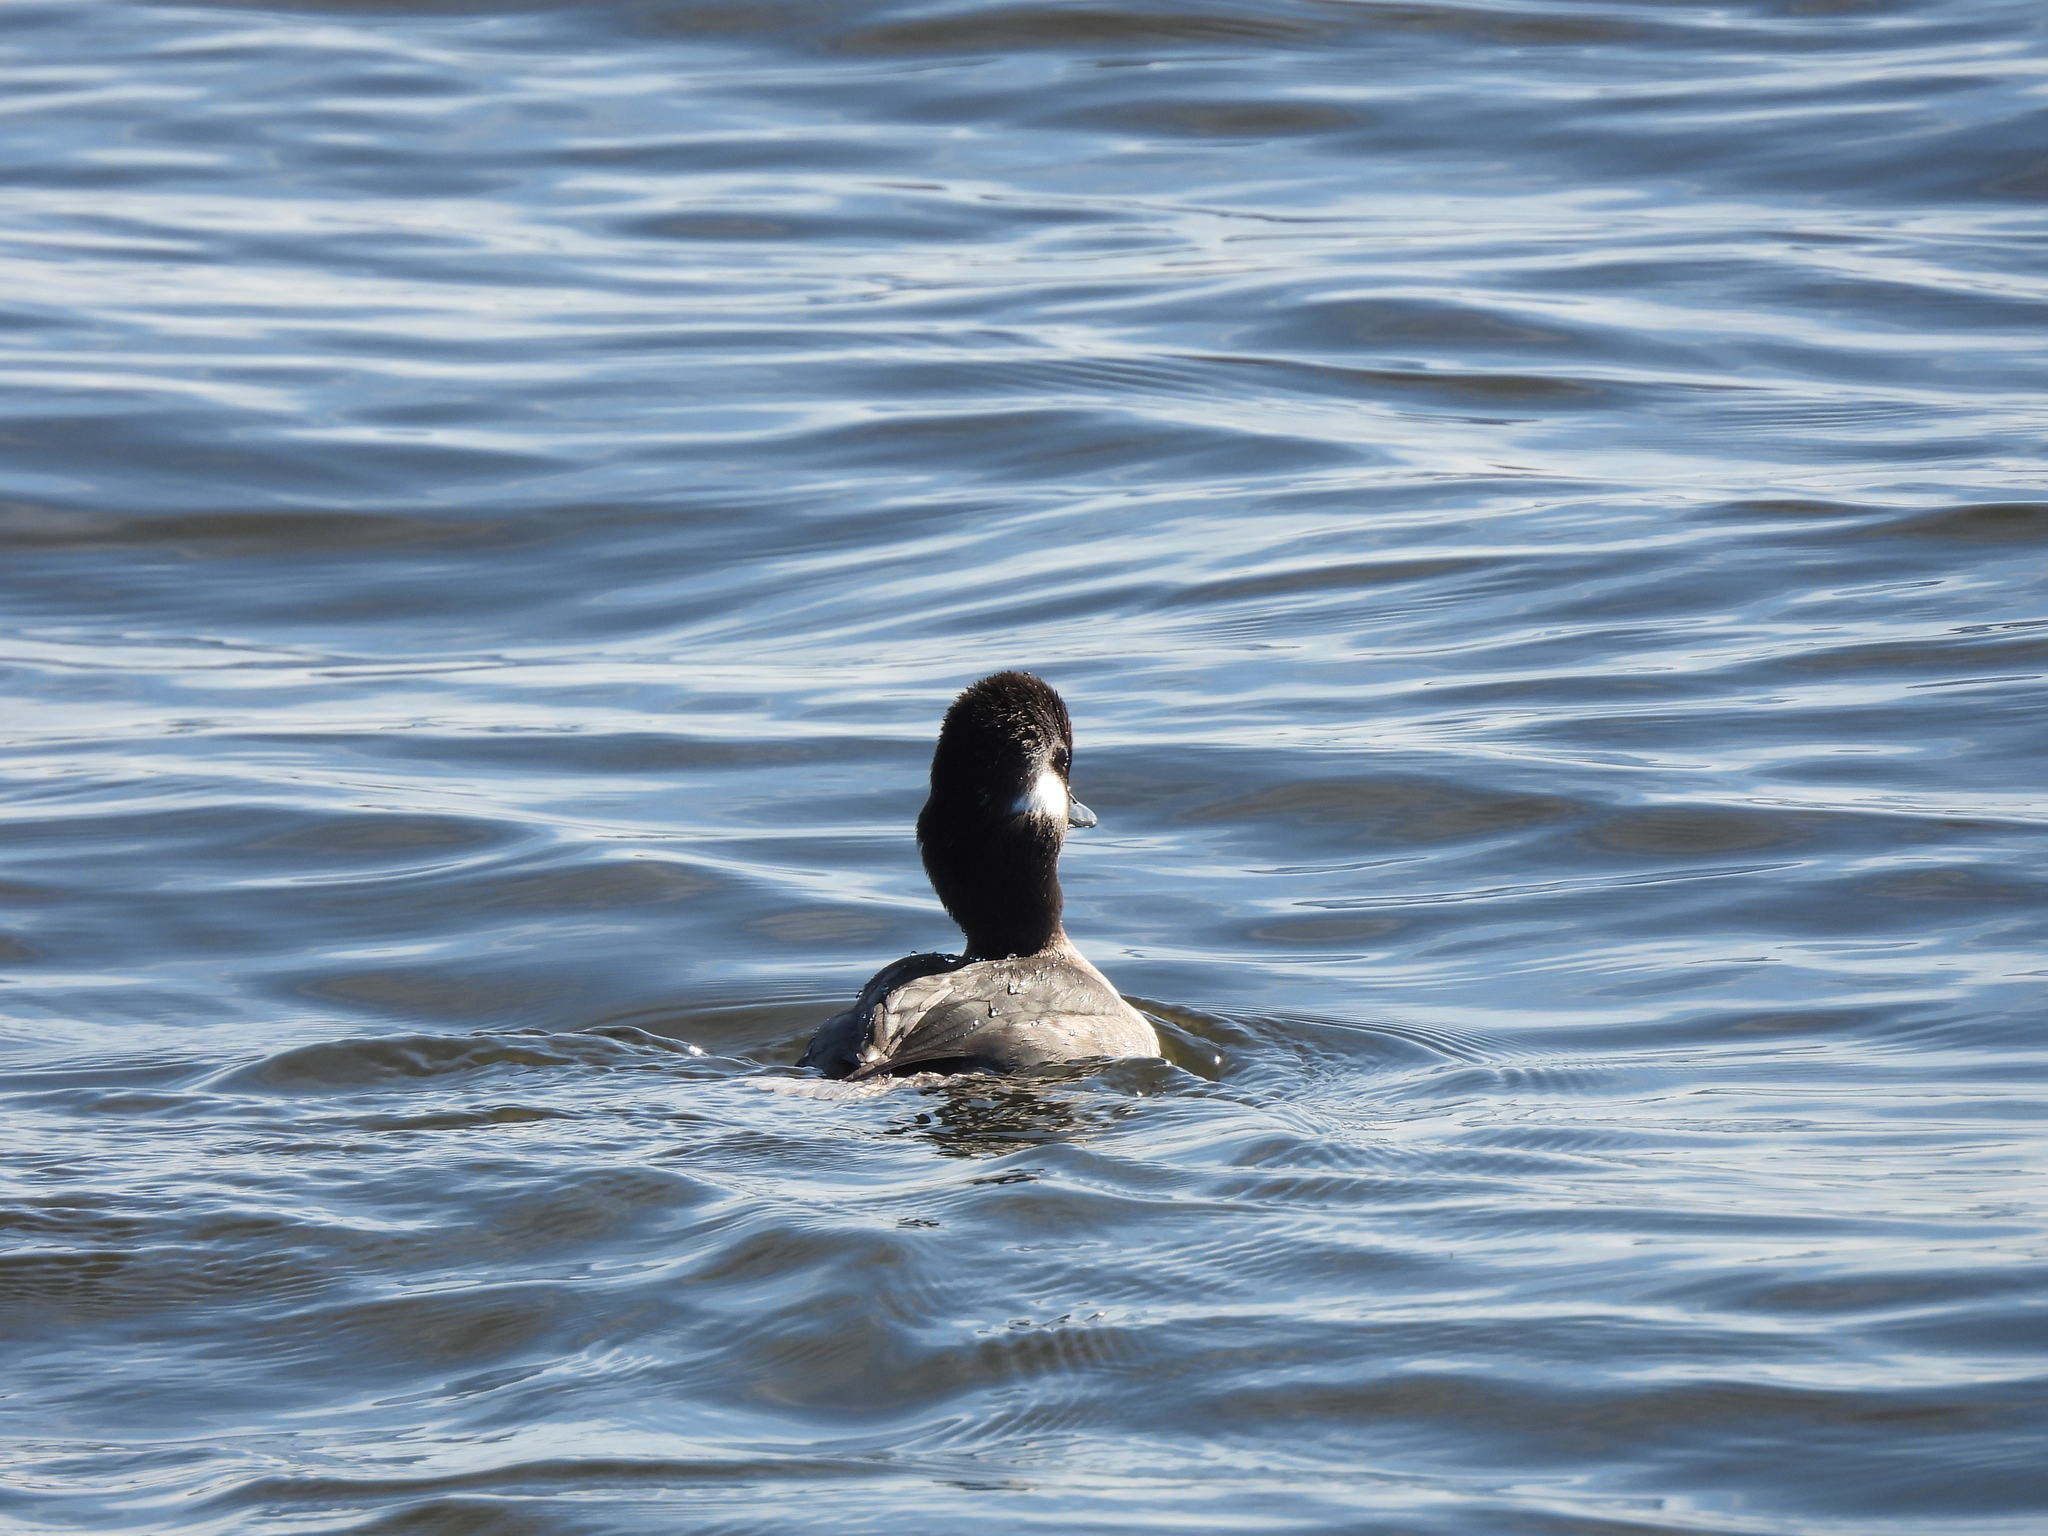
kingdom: Animalia
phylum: Chordata
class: Aves
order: Anseriformes
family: Anatidae
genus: Bucephala
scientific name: Bucephala albeola
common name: Bufflehead
